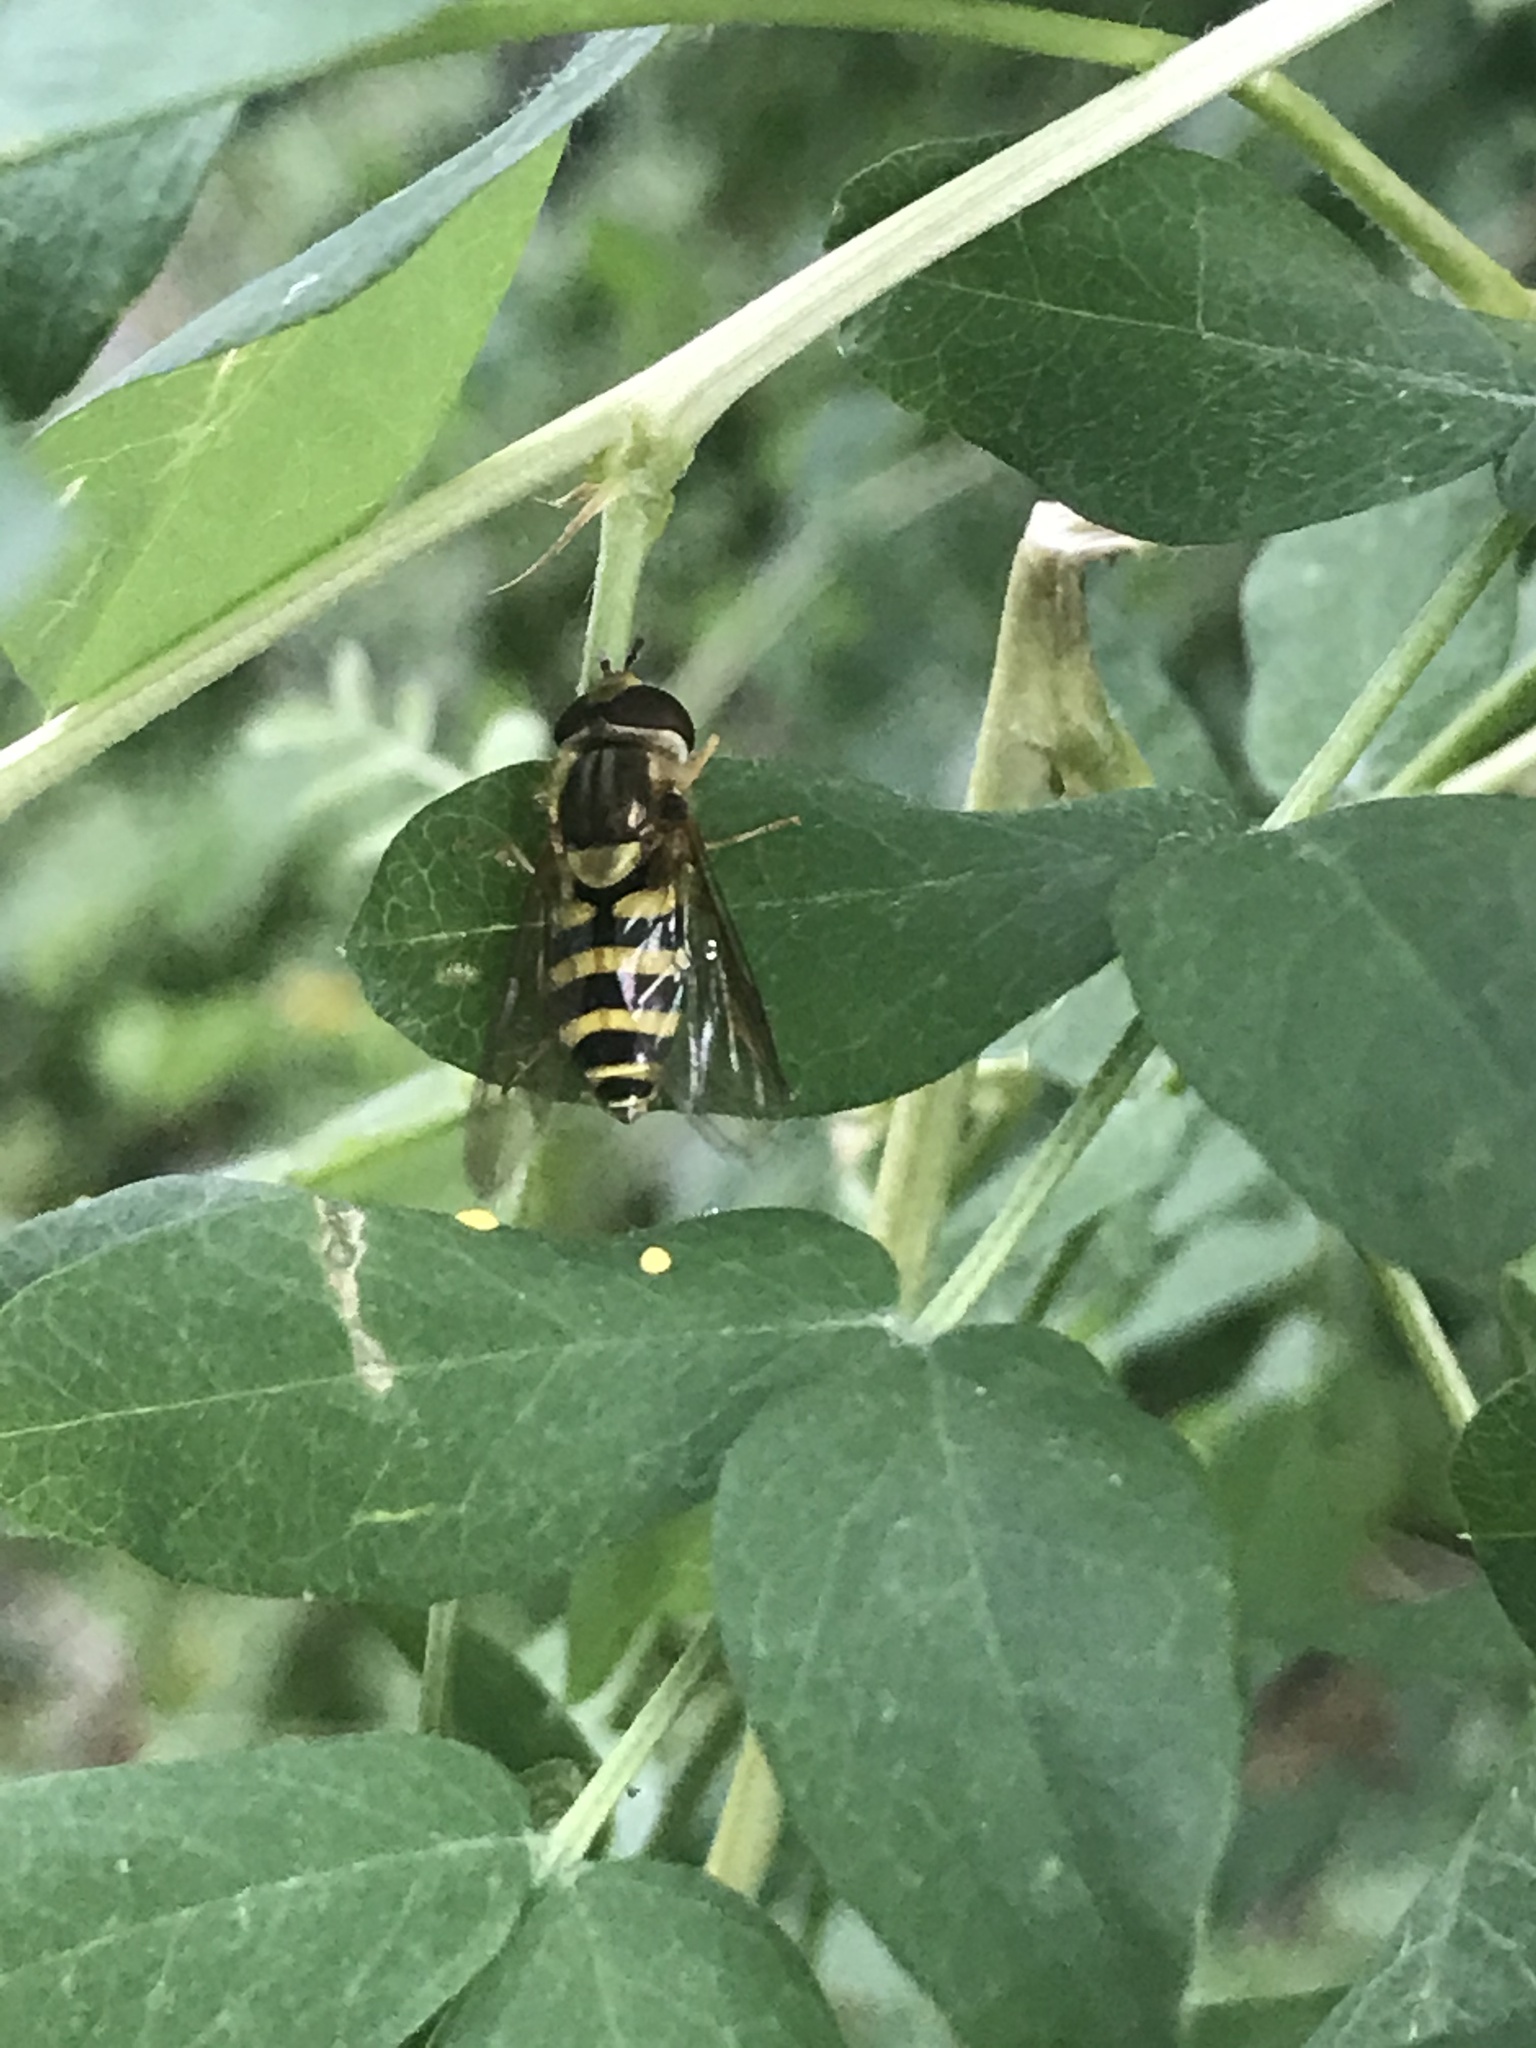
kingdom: Animalia
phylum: Arthropoda
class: Insecta
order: Diptera
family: Syrphidae
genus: Syrphus
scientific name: Syrphus knabi
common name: Eastern flower fly
